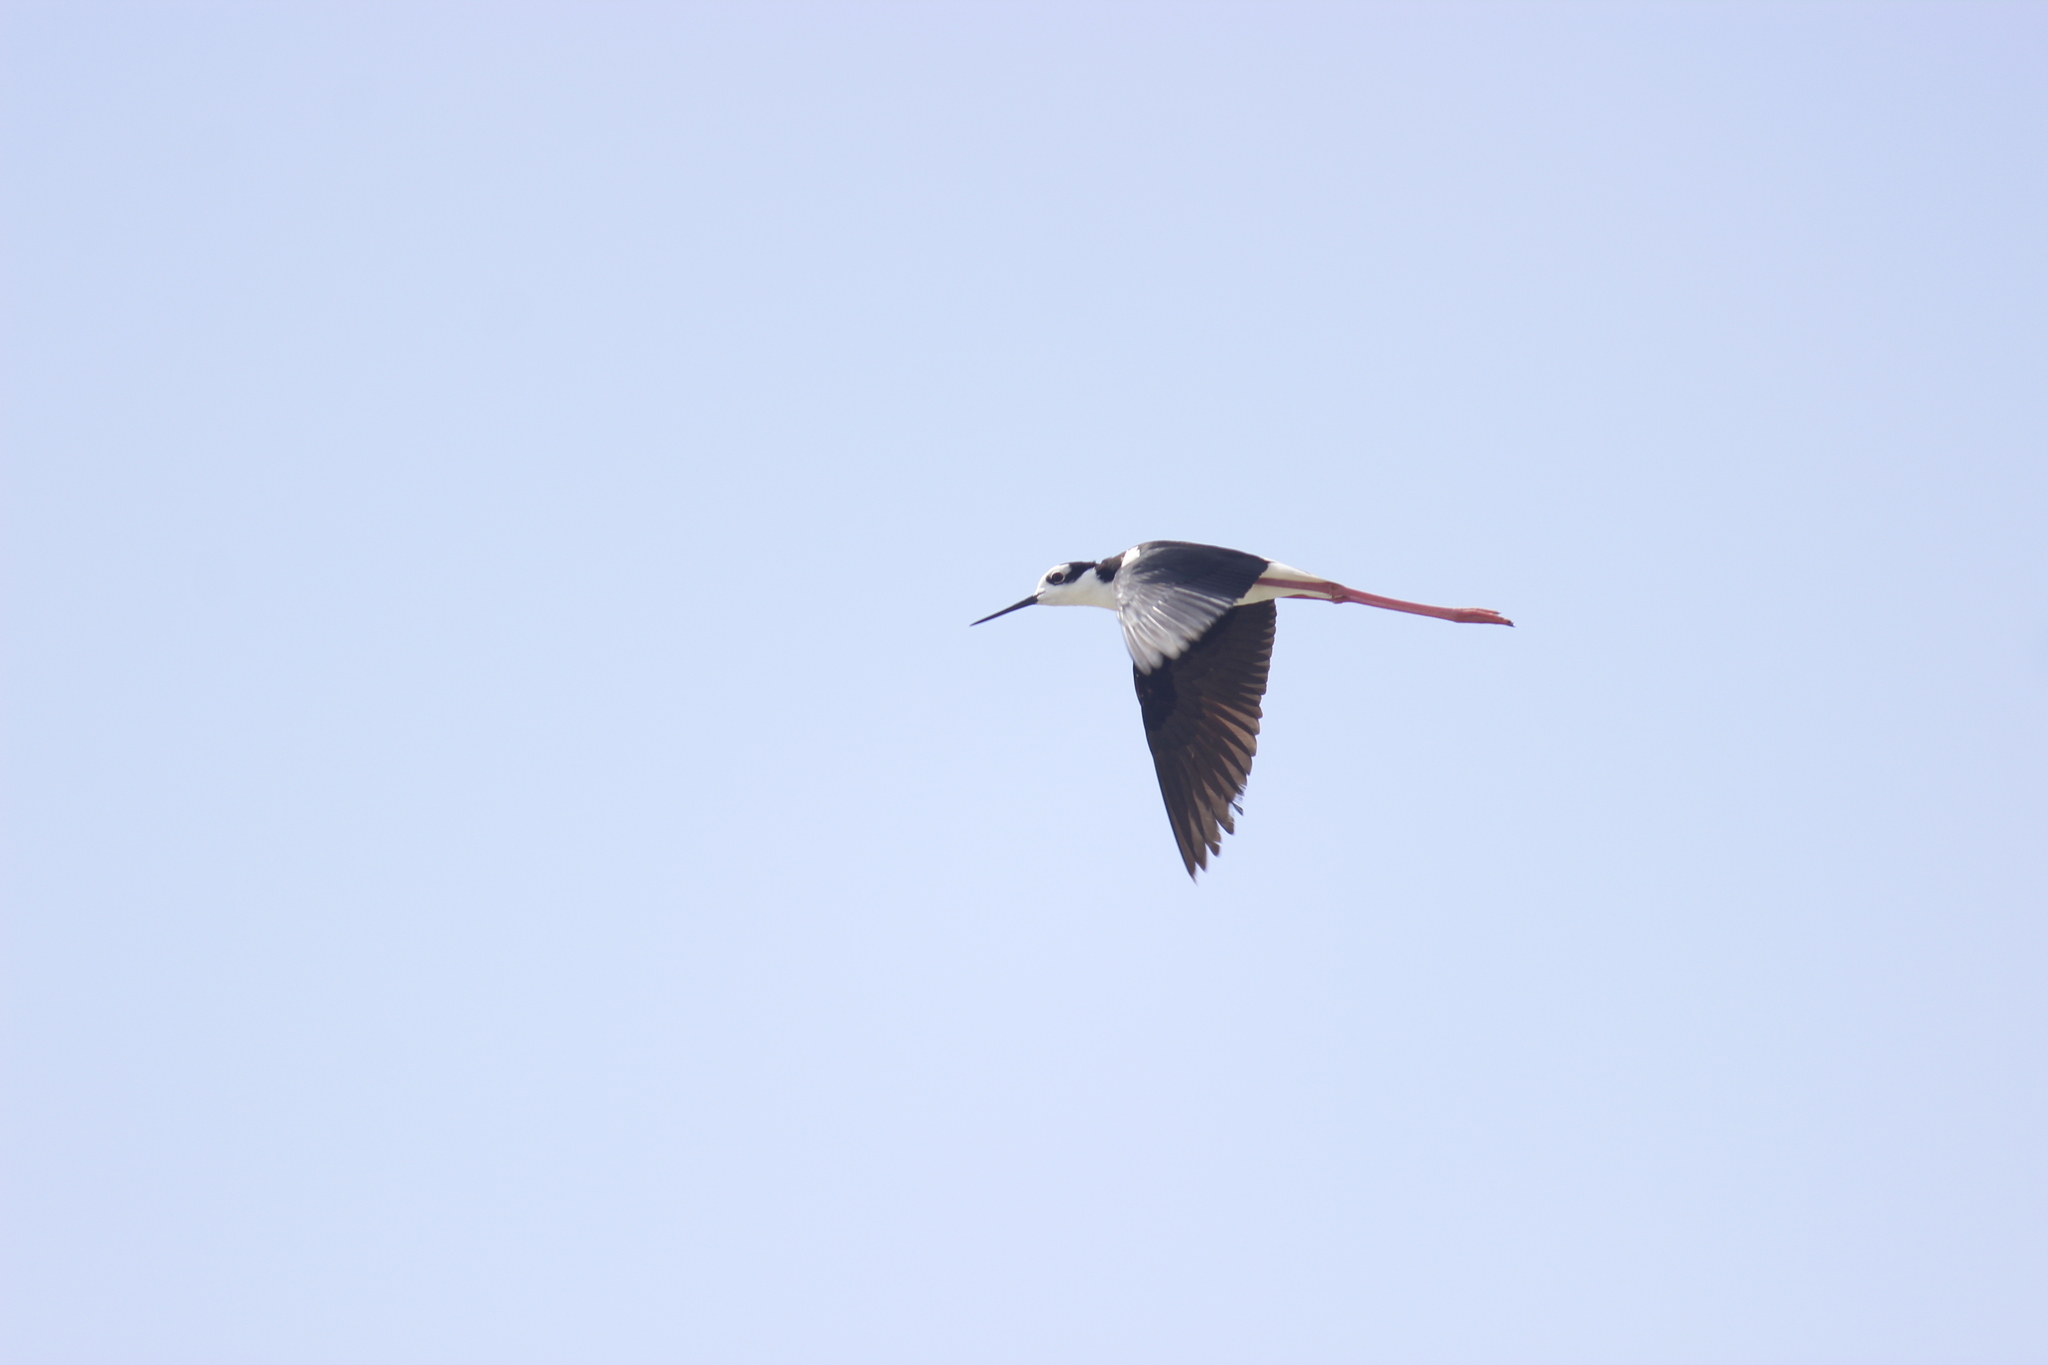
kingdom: Animalia
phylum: Chordata
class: Aves
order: Charadriiformes
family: Recurvirostridae
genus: Himantopus
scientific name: Himantopus mexicanus
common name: Black-necked stilt
